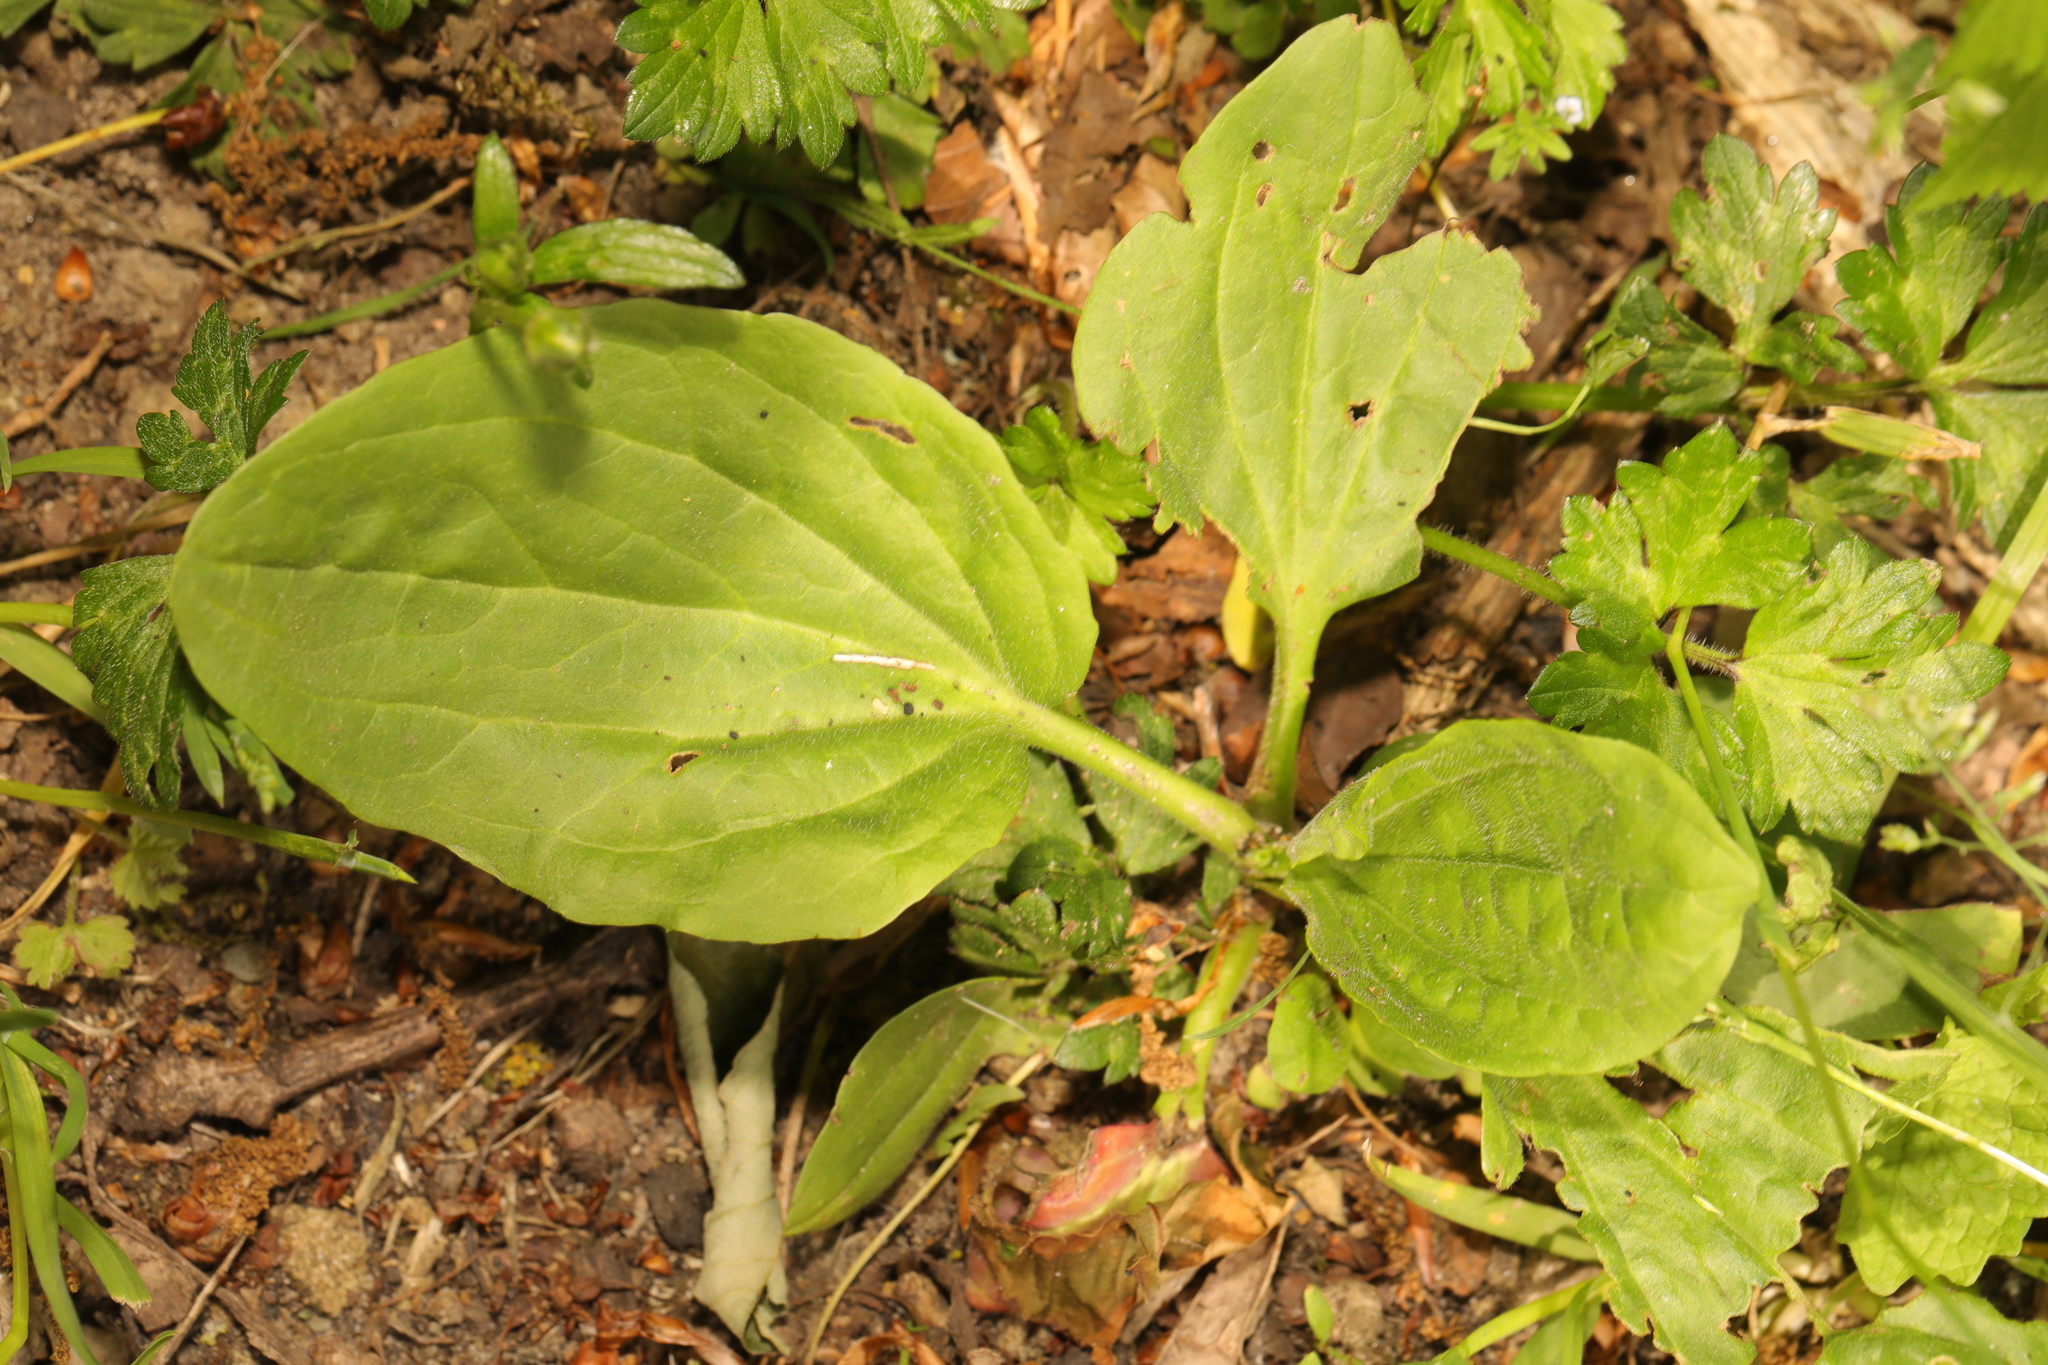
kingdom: Plantae
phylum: Tracheophyta
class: Magnoliopsida
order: Lamiales
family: Plantaginaceae
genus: Plantago
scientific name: Plantago major
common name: Common plantain
